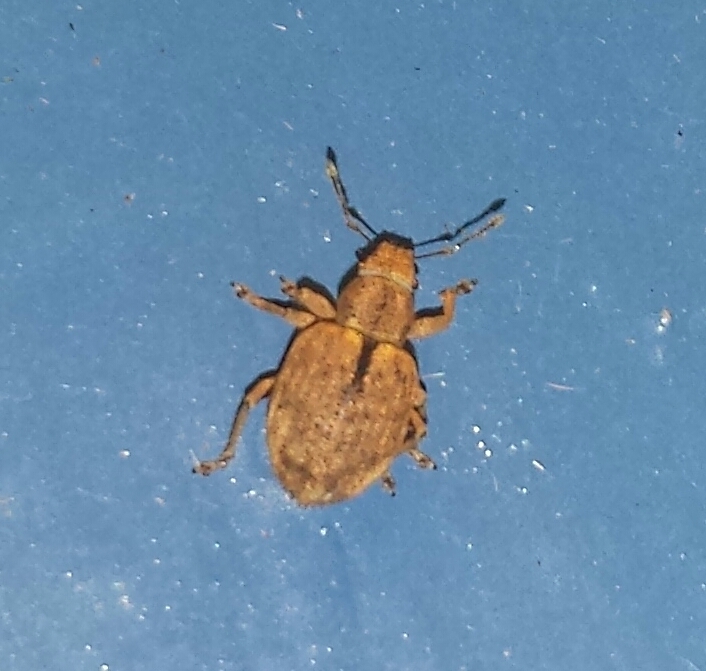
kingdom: Animalia
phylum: Arthropoda
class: Insecta
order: Coleoptera
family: Curculionidae
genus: Strophosoma
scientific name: Strophosoma melanogrammum
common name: Weevil
